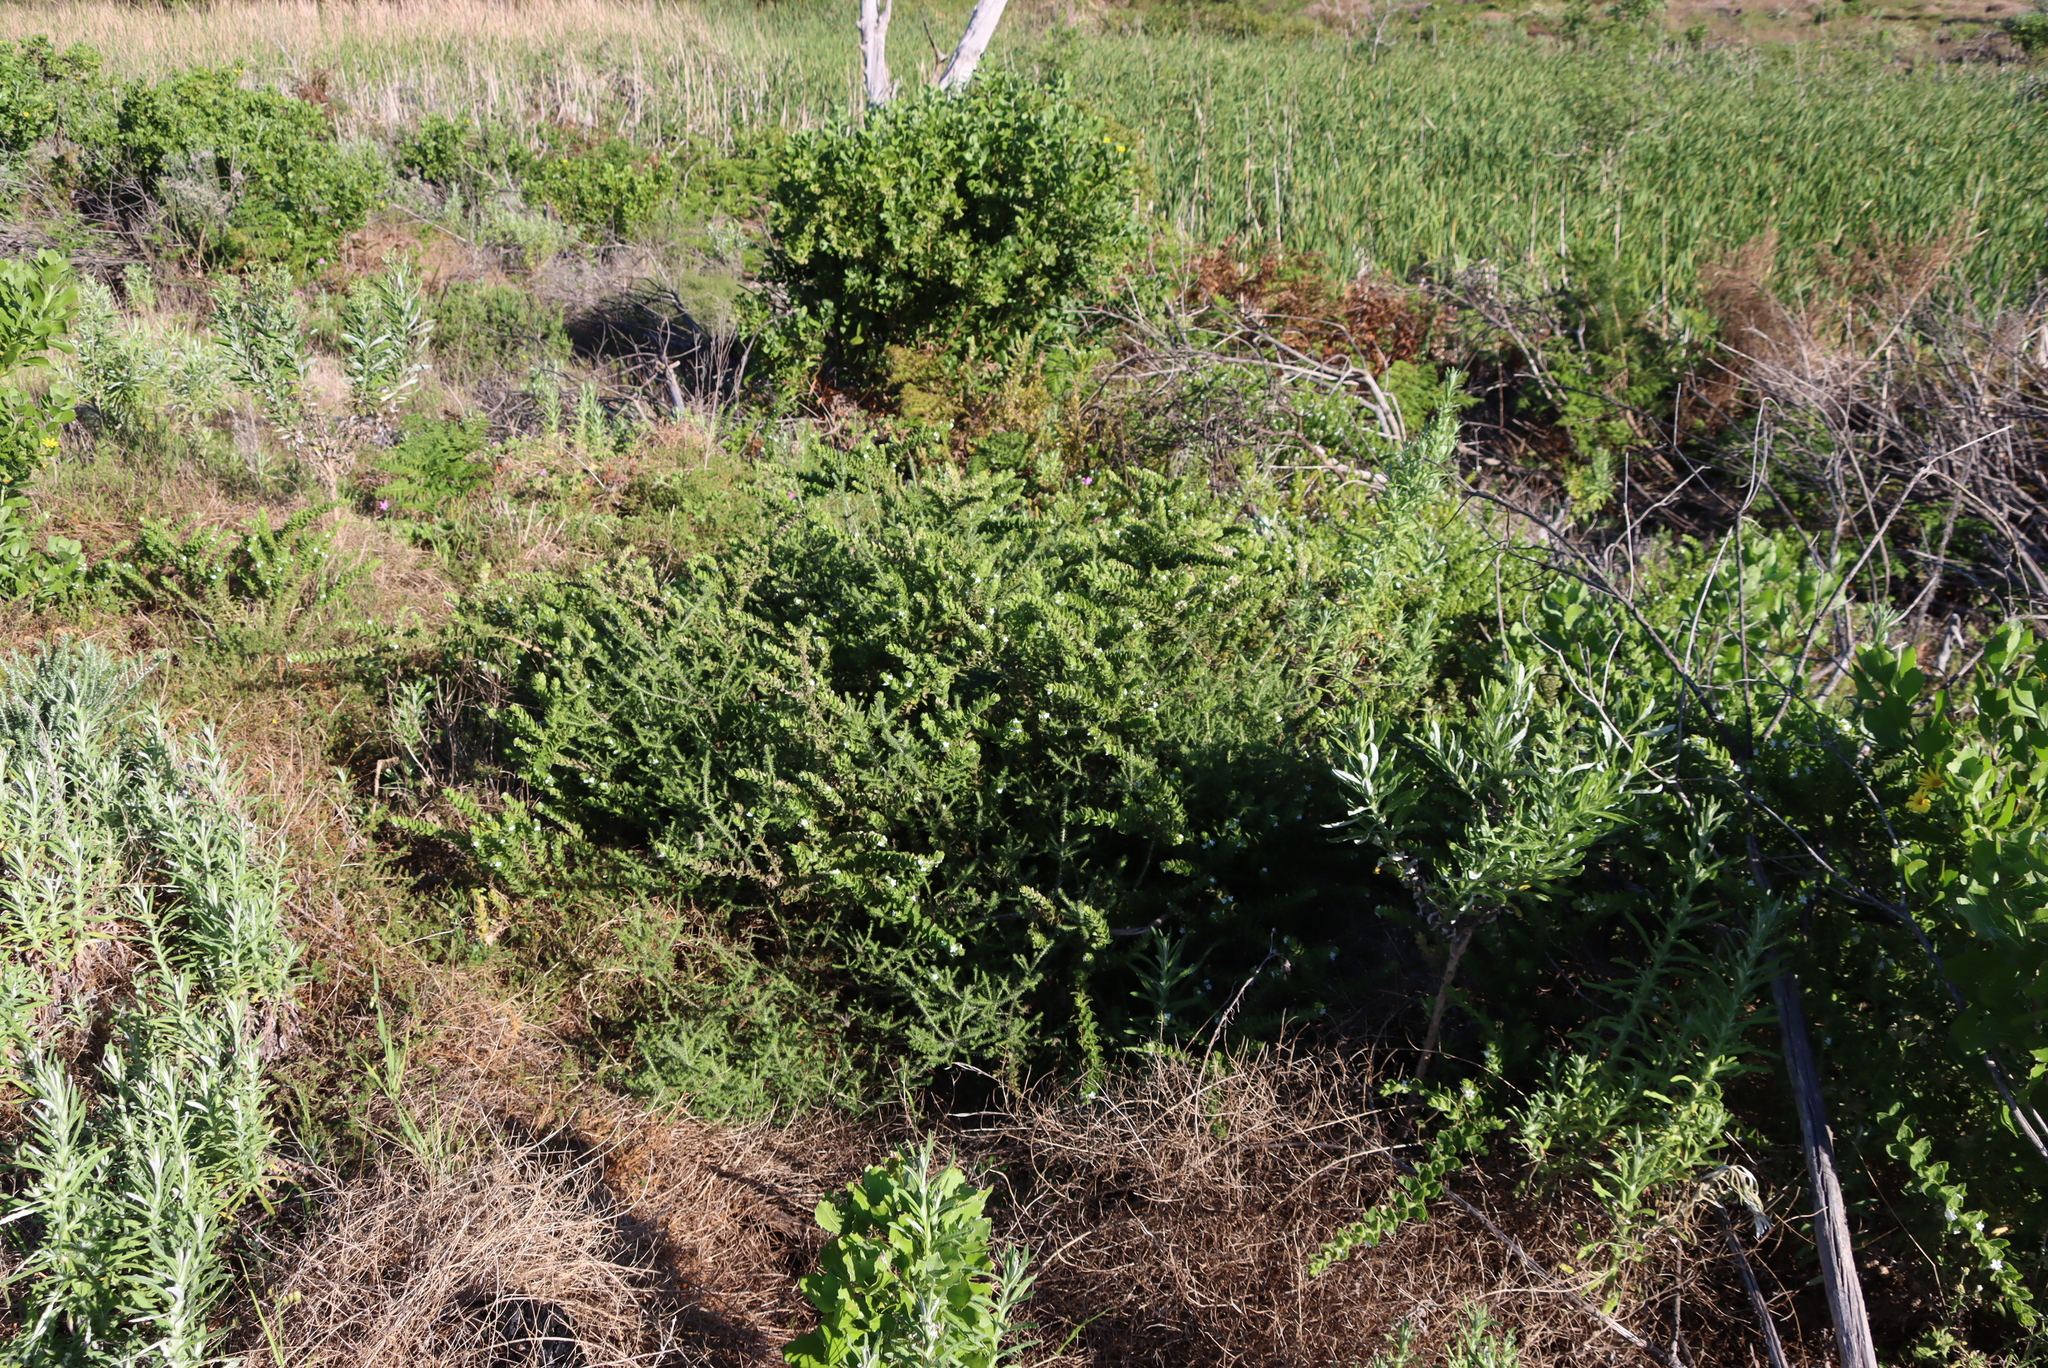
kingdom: Plantae
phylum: Tracheophyta
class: Magnoliopsida
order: Lamiales
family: Scrophulariaceae
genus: Oftia
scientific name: Oftia africana
